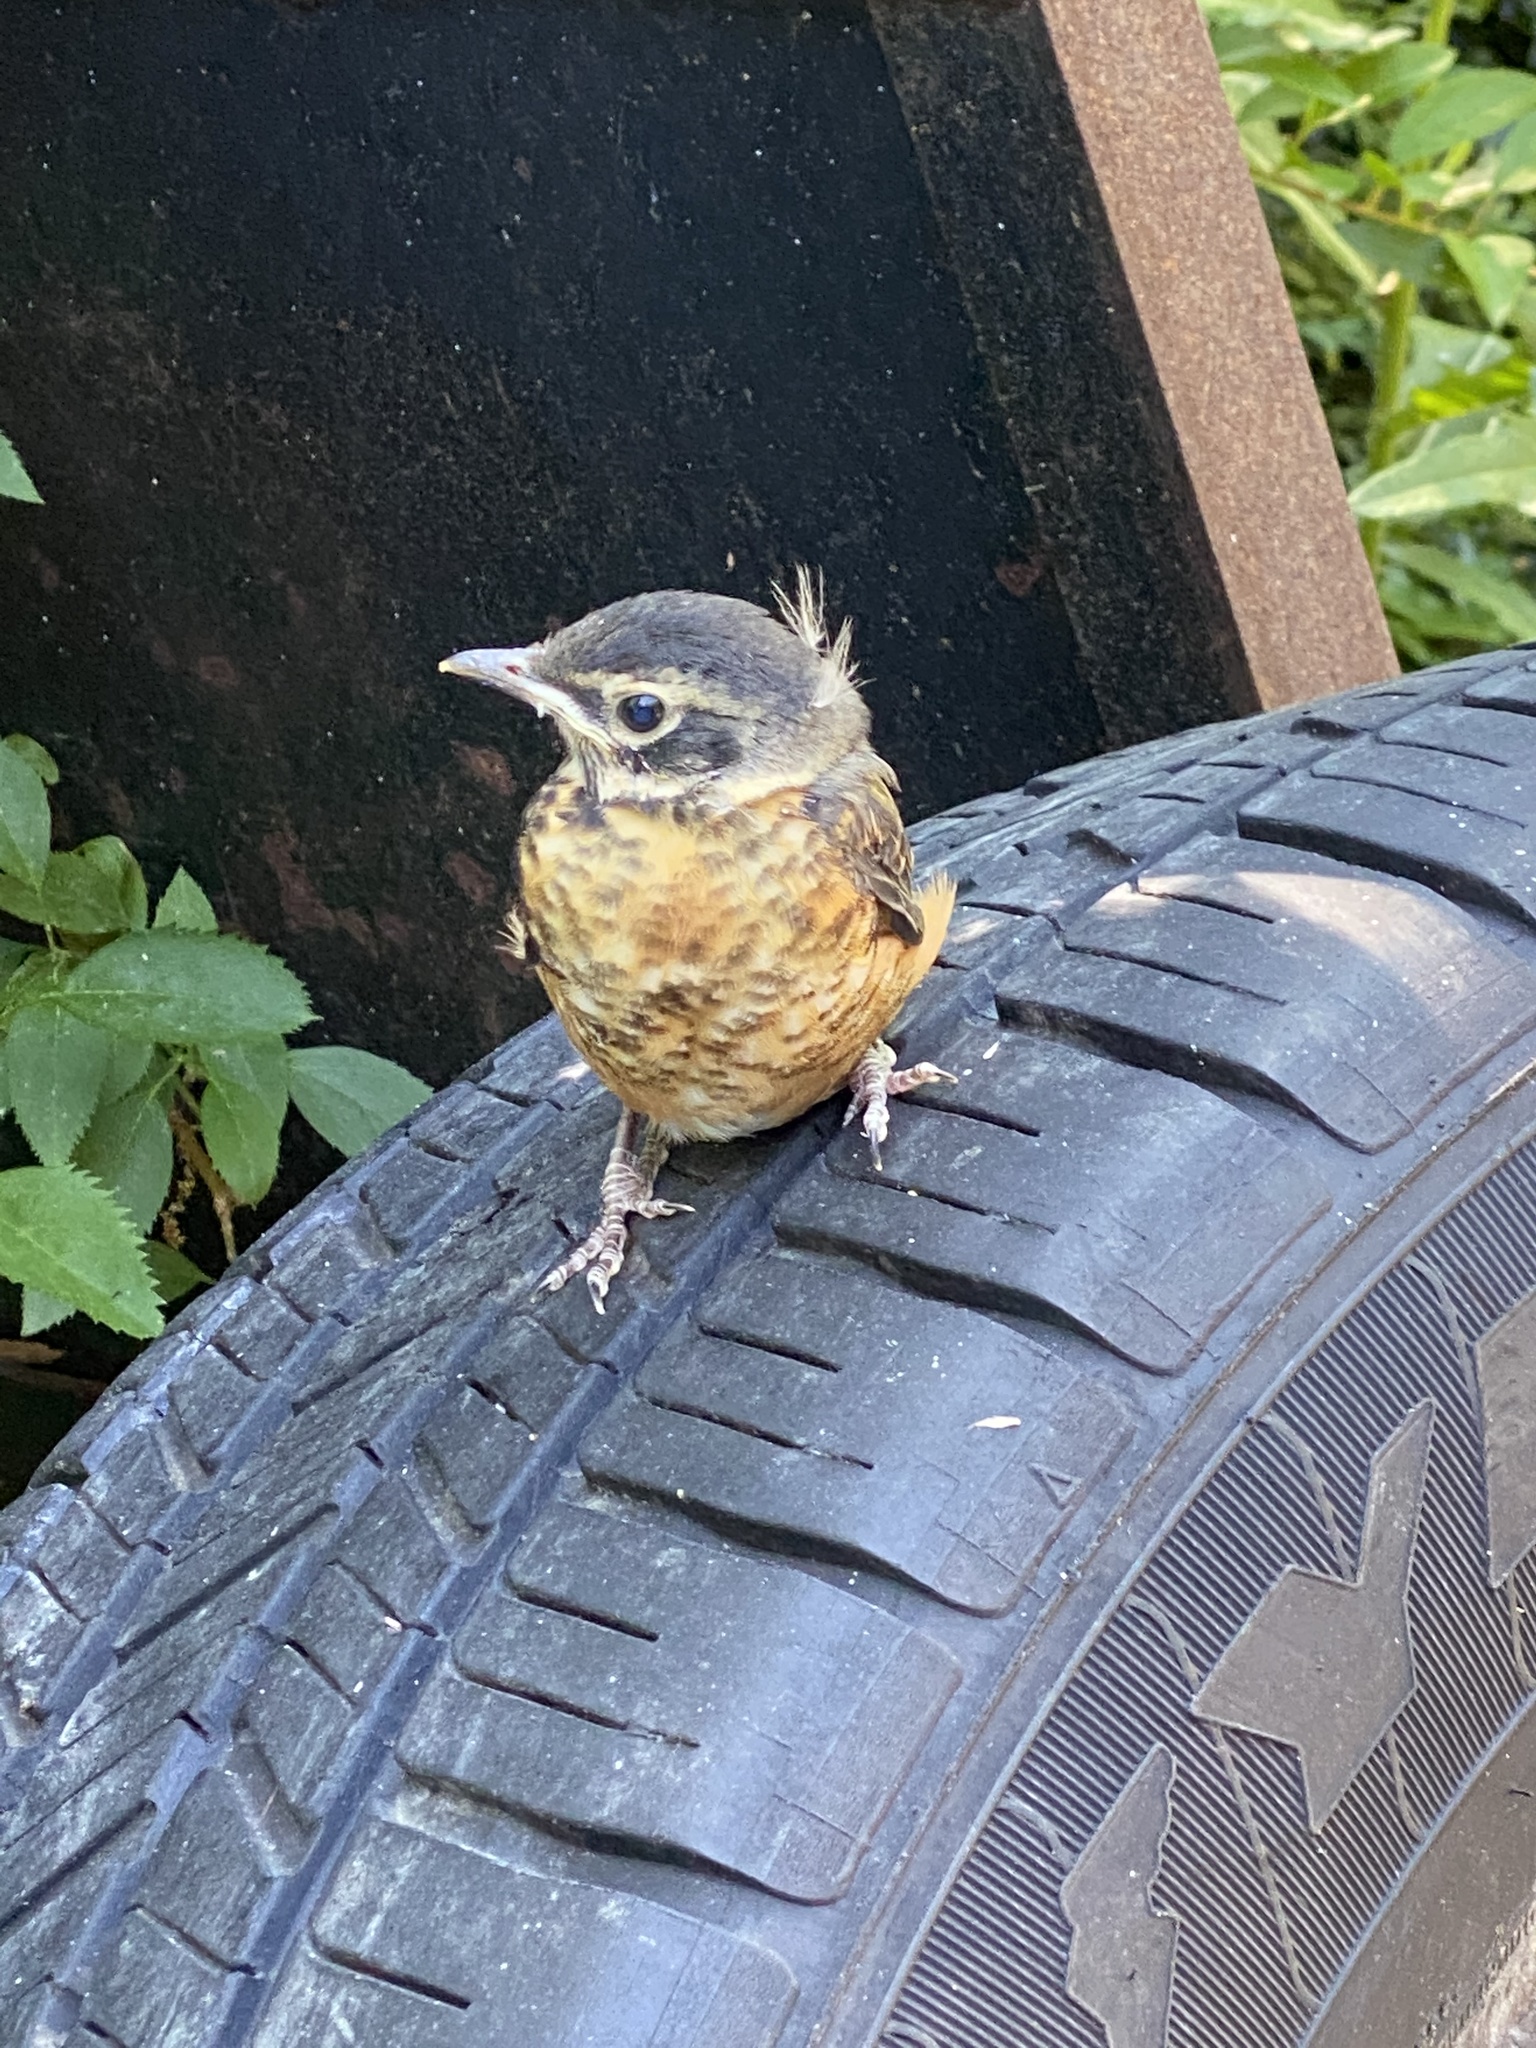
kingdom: Animalia
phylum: Chordata
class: Aves
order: Passeriformes
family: Turdidae
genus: Turdus
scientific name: Turdus migratorius
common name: American robin
